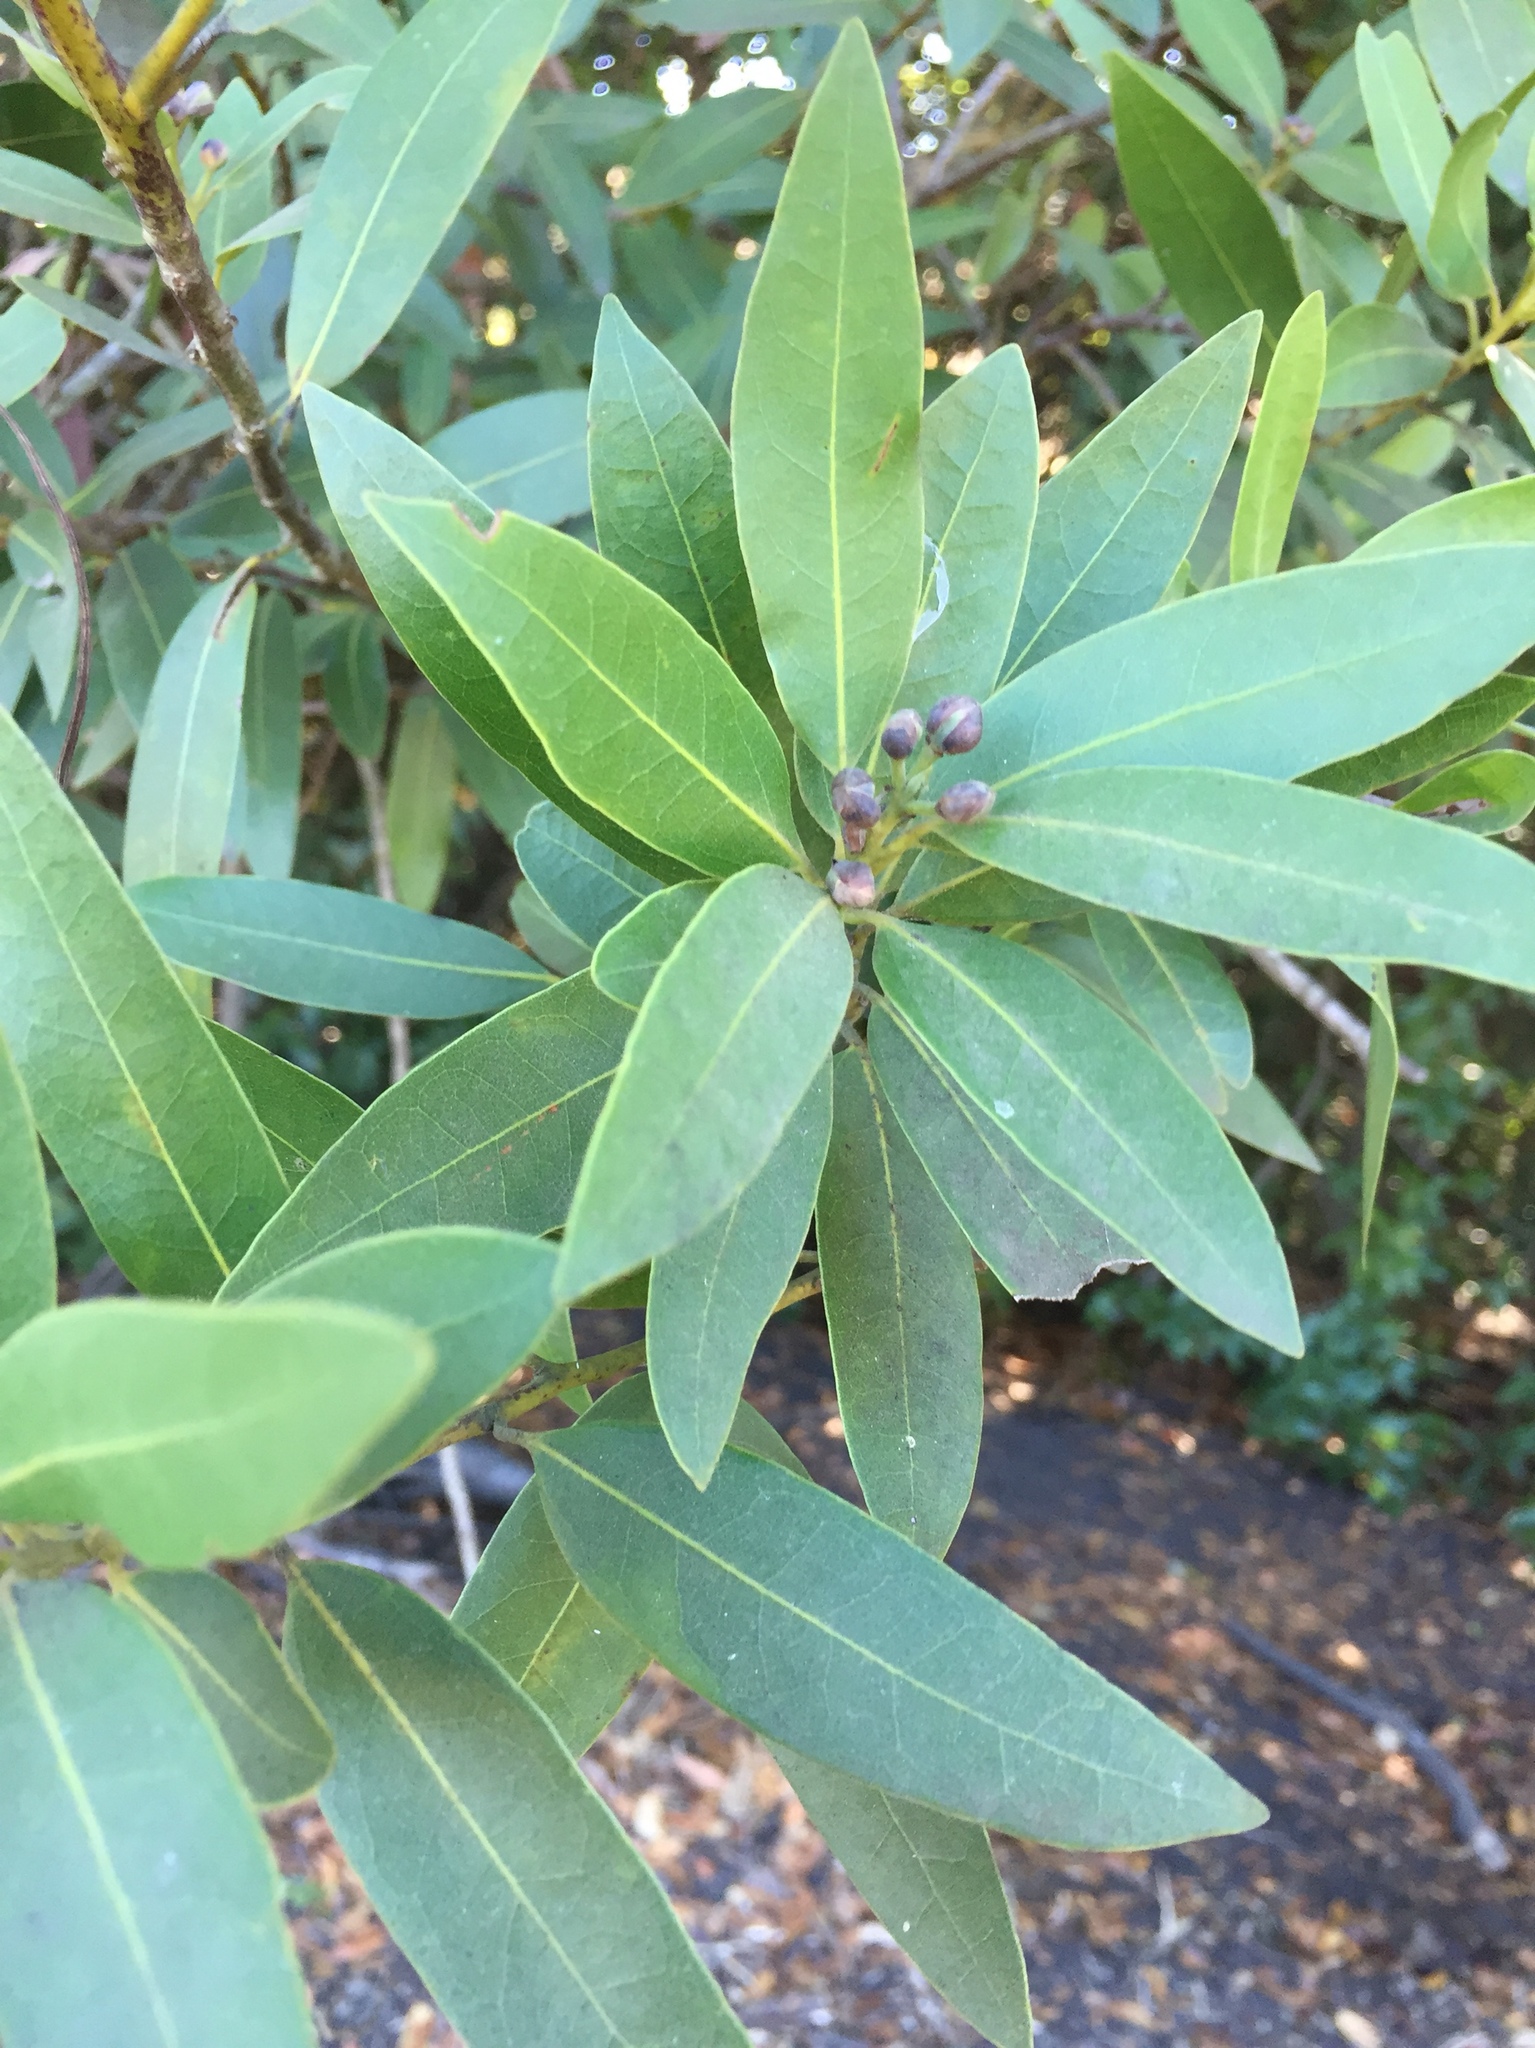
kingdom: Plantae
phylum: Tracheophyta
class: Magnoliopsida
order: Laurales
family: Lauraceae
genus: Umbellularia
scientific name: Umbellularia californica
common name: California bay
